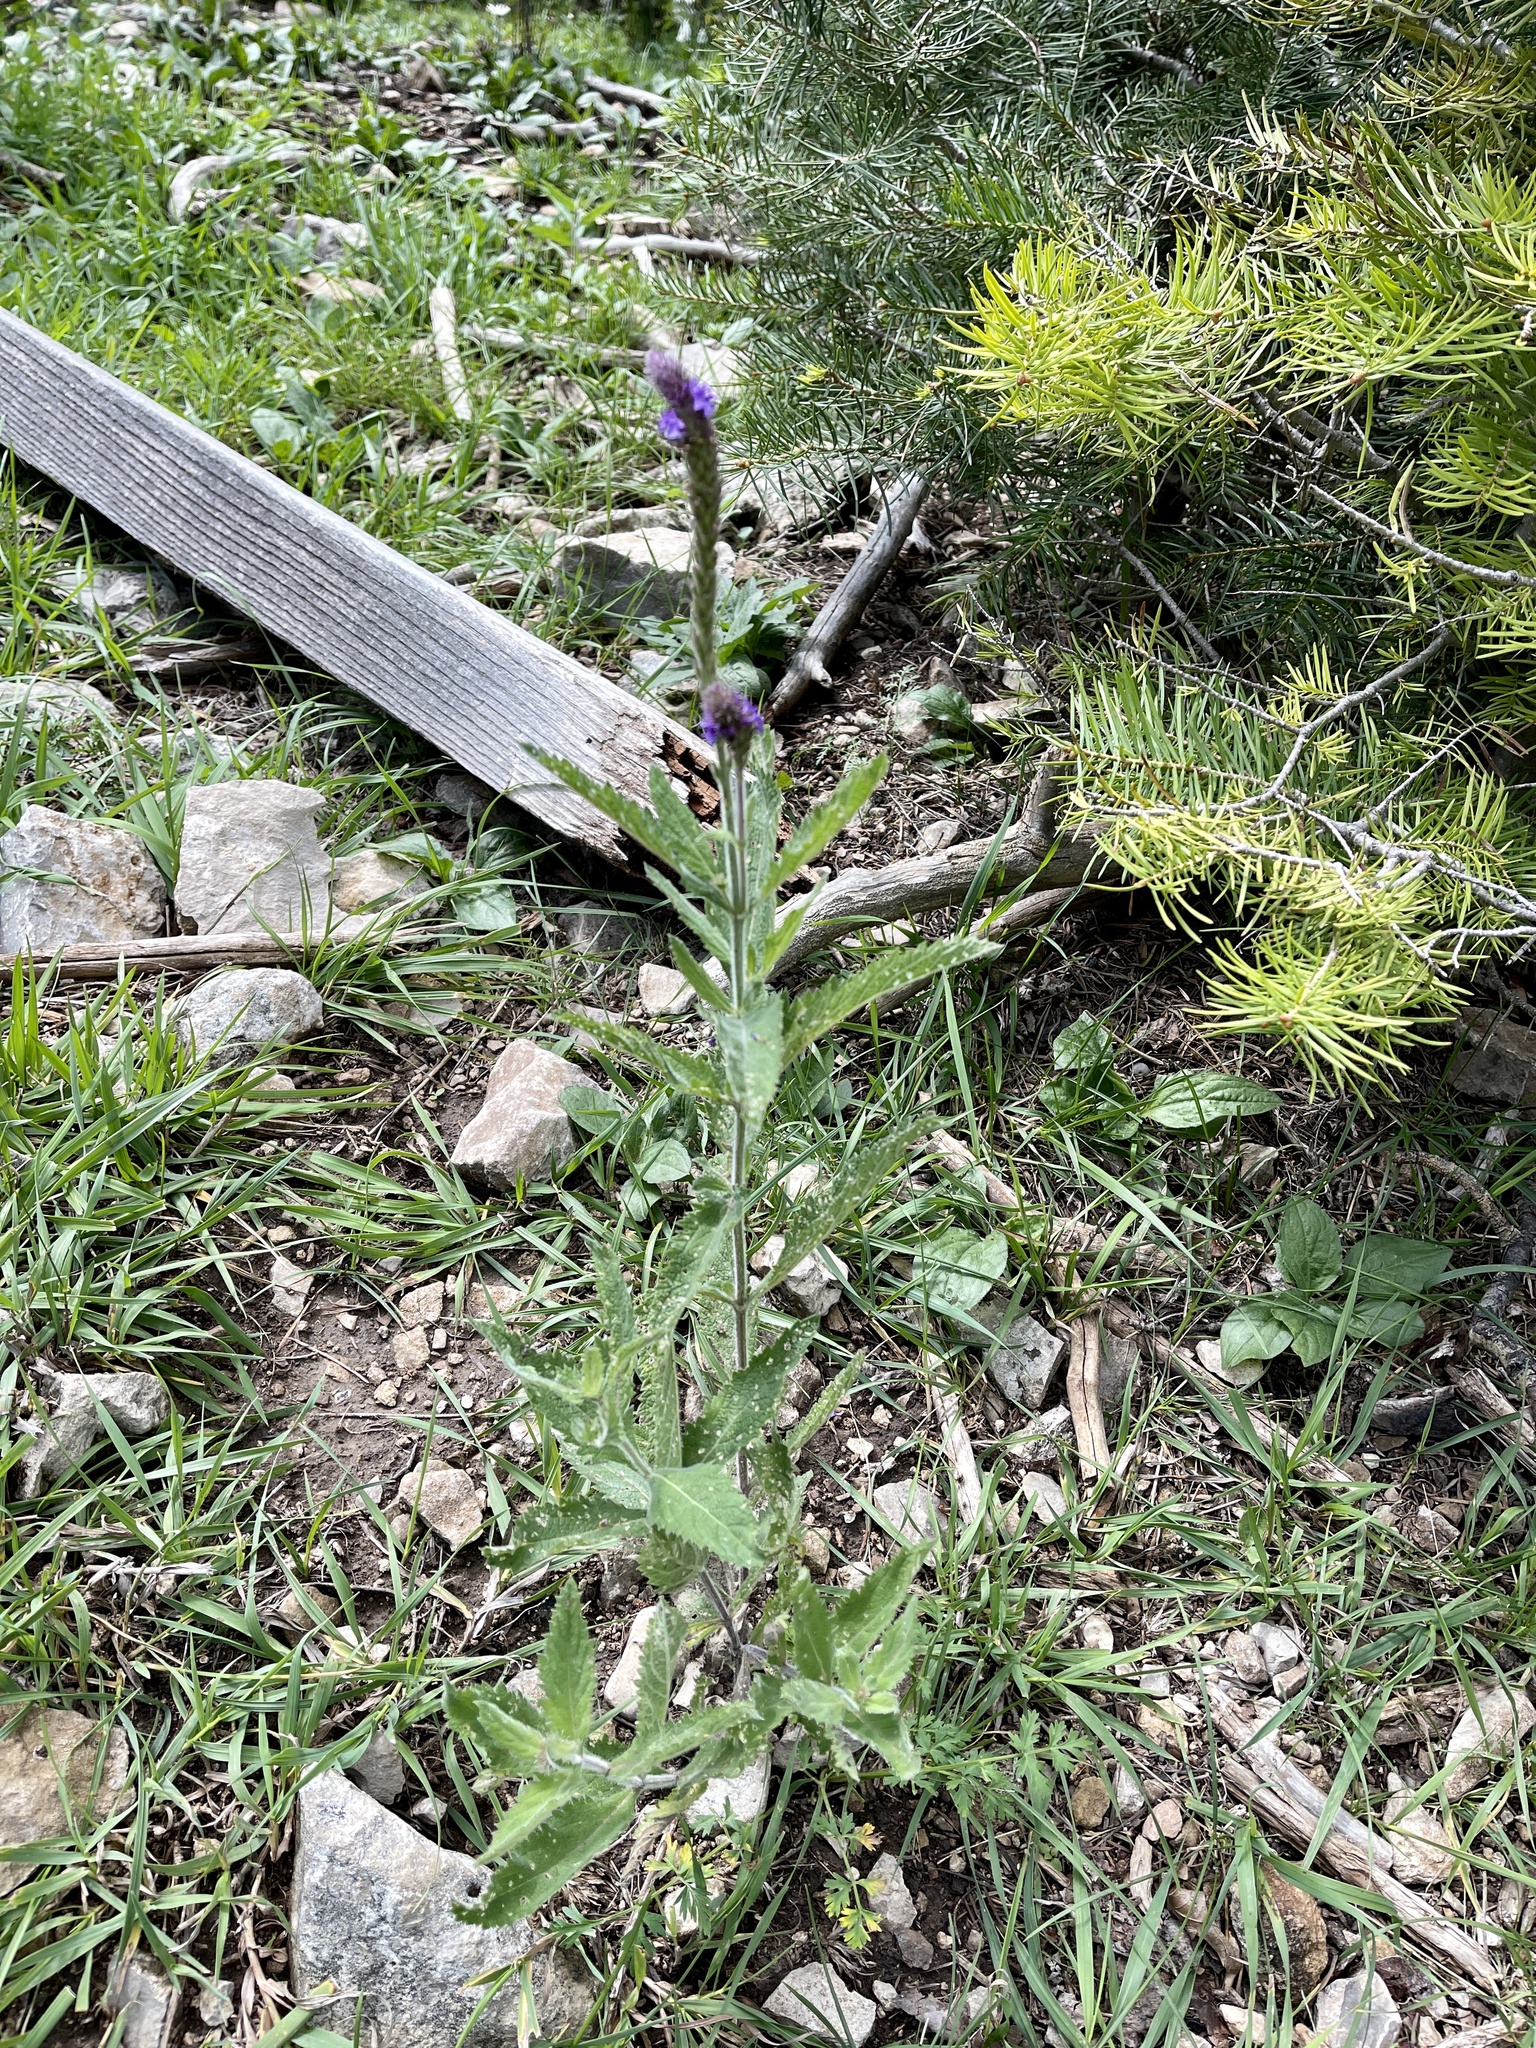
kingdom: Plantae
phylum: Tracheophyta
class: Magnoliopsida
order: Lamiales
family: Verbenaceae
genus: Verbena
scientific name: Verbena macdougalii
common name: New mexico vervain
